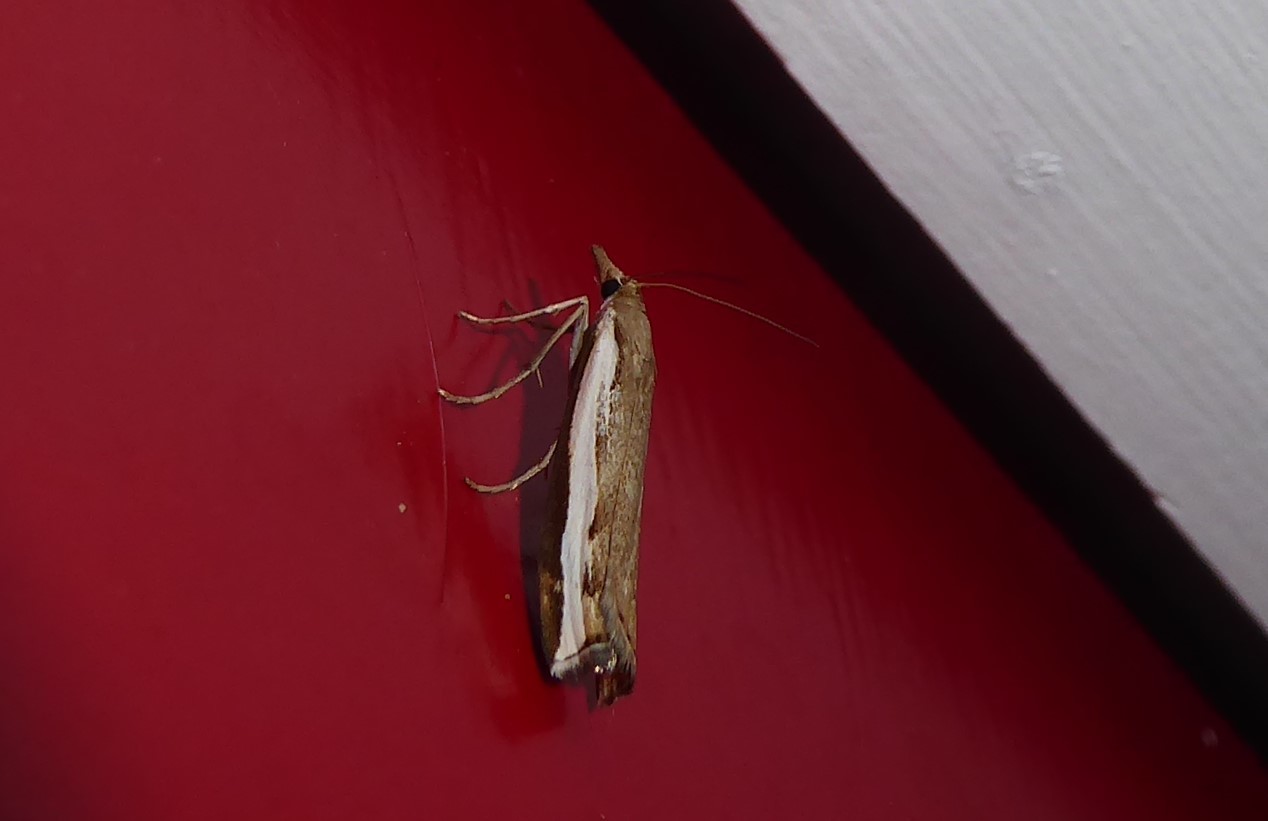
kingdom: Animalia
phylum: Arthropoda
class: Insecta
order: Lepidoptera
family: Crambidae
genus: Orocrambus
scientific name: Orocrambus flexuosellus
